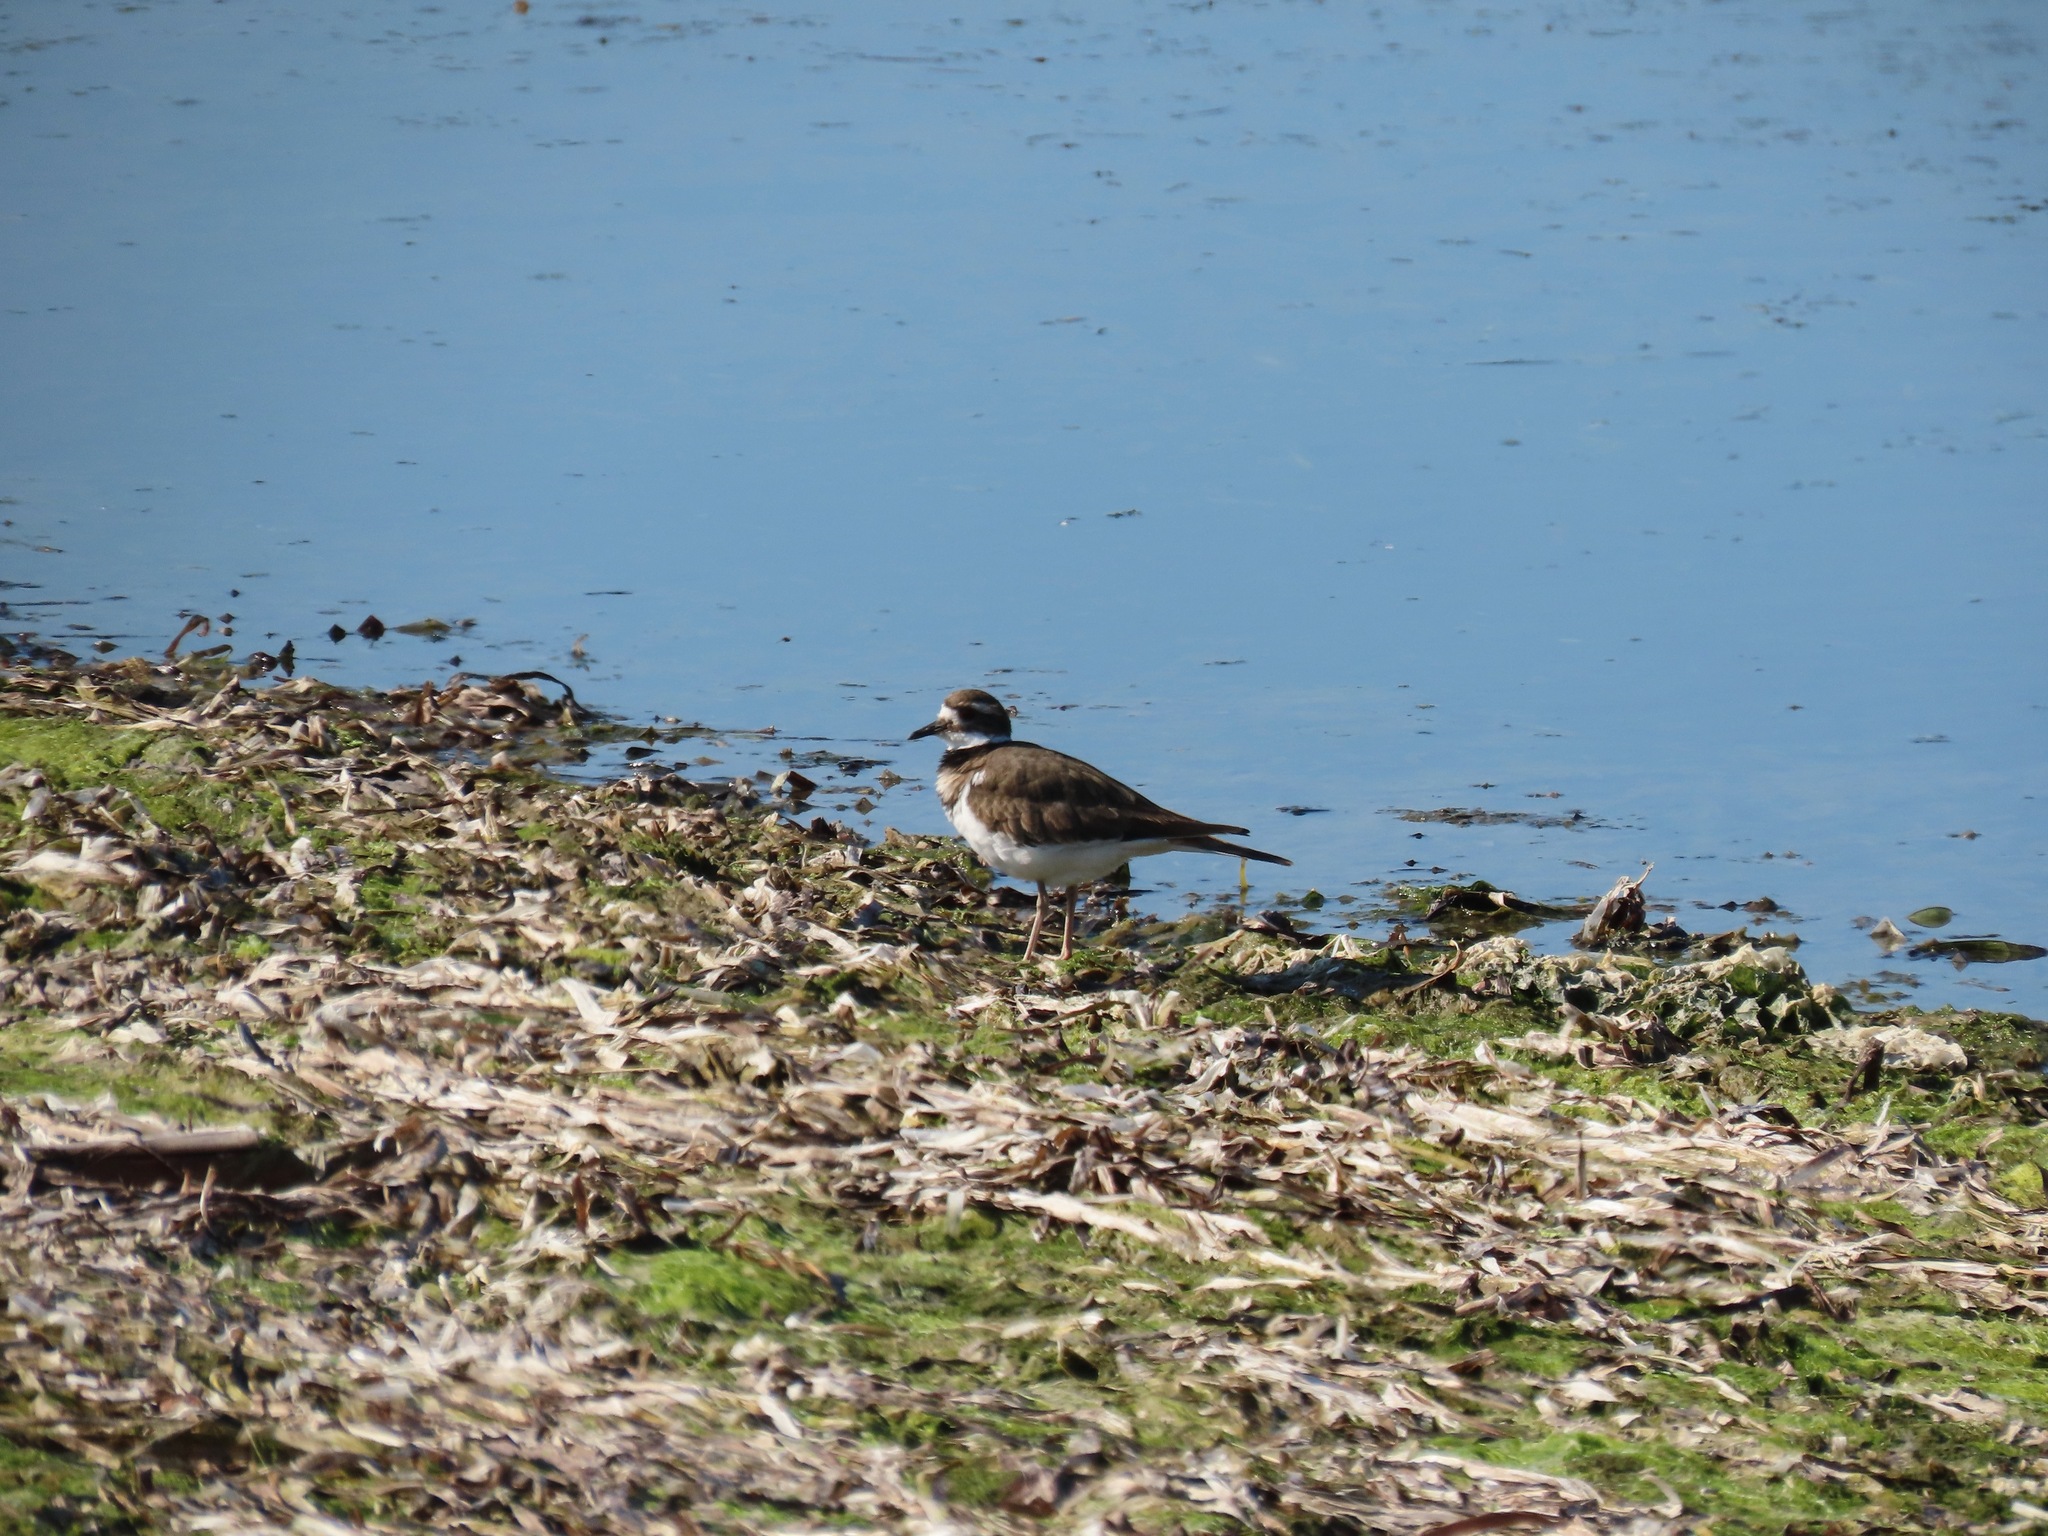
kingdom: Animalia
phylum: Chordata
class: Aves
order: Charadriiformes
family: Charadriidae
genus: Charadrius
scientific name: Charadrius vociferus
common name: Killdeer
